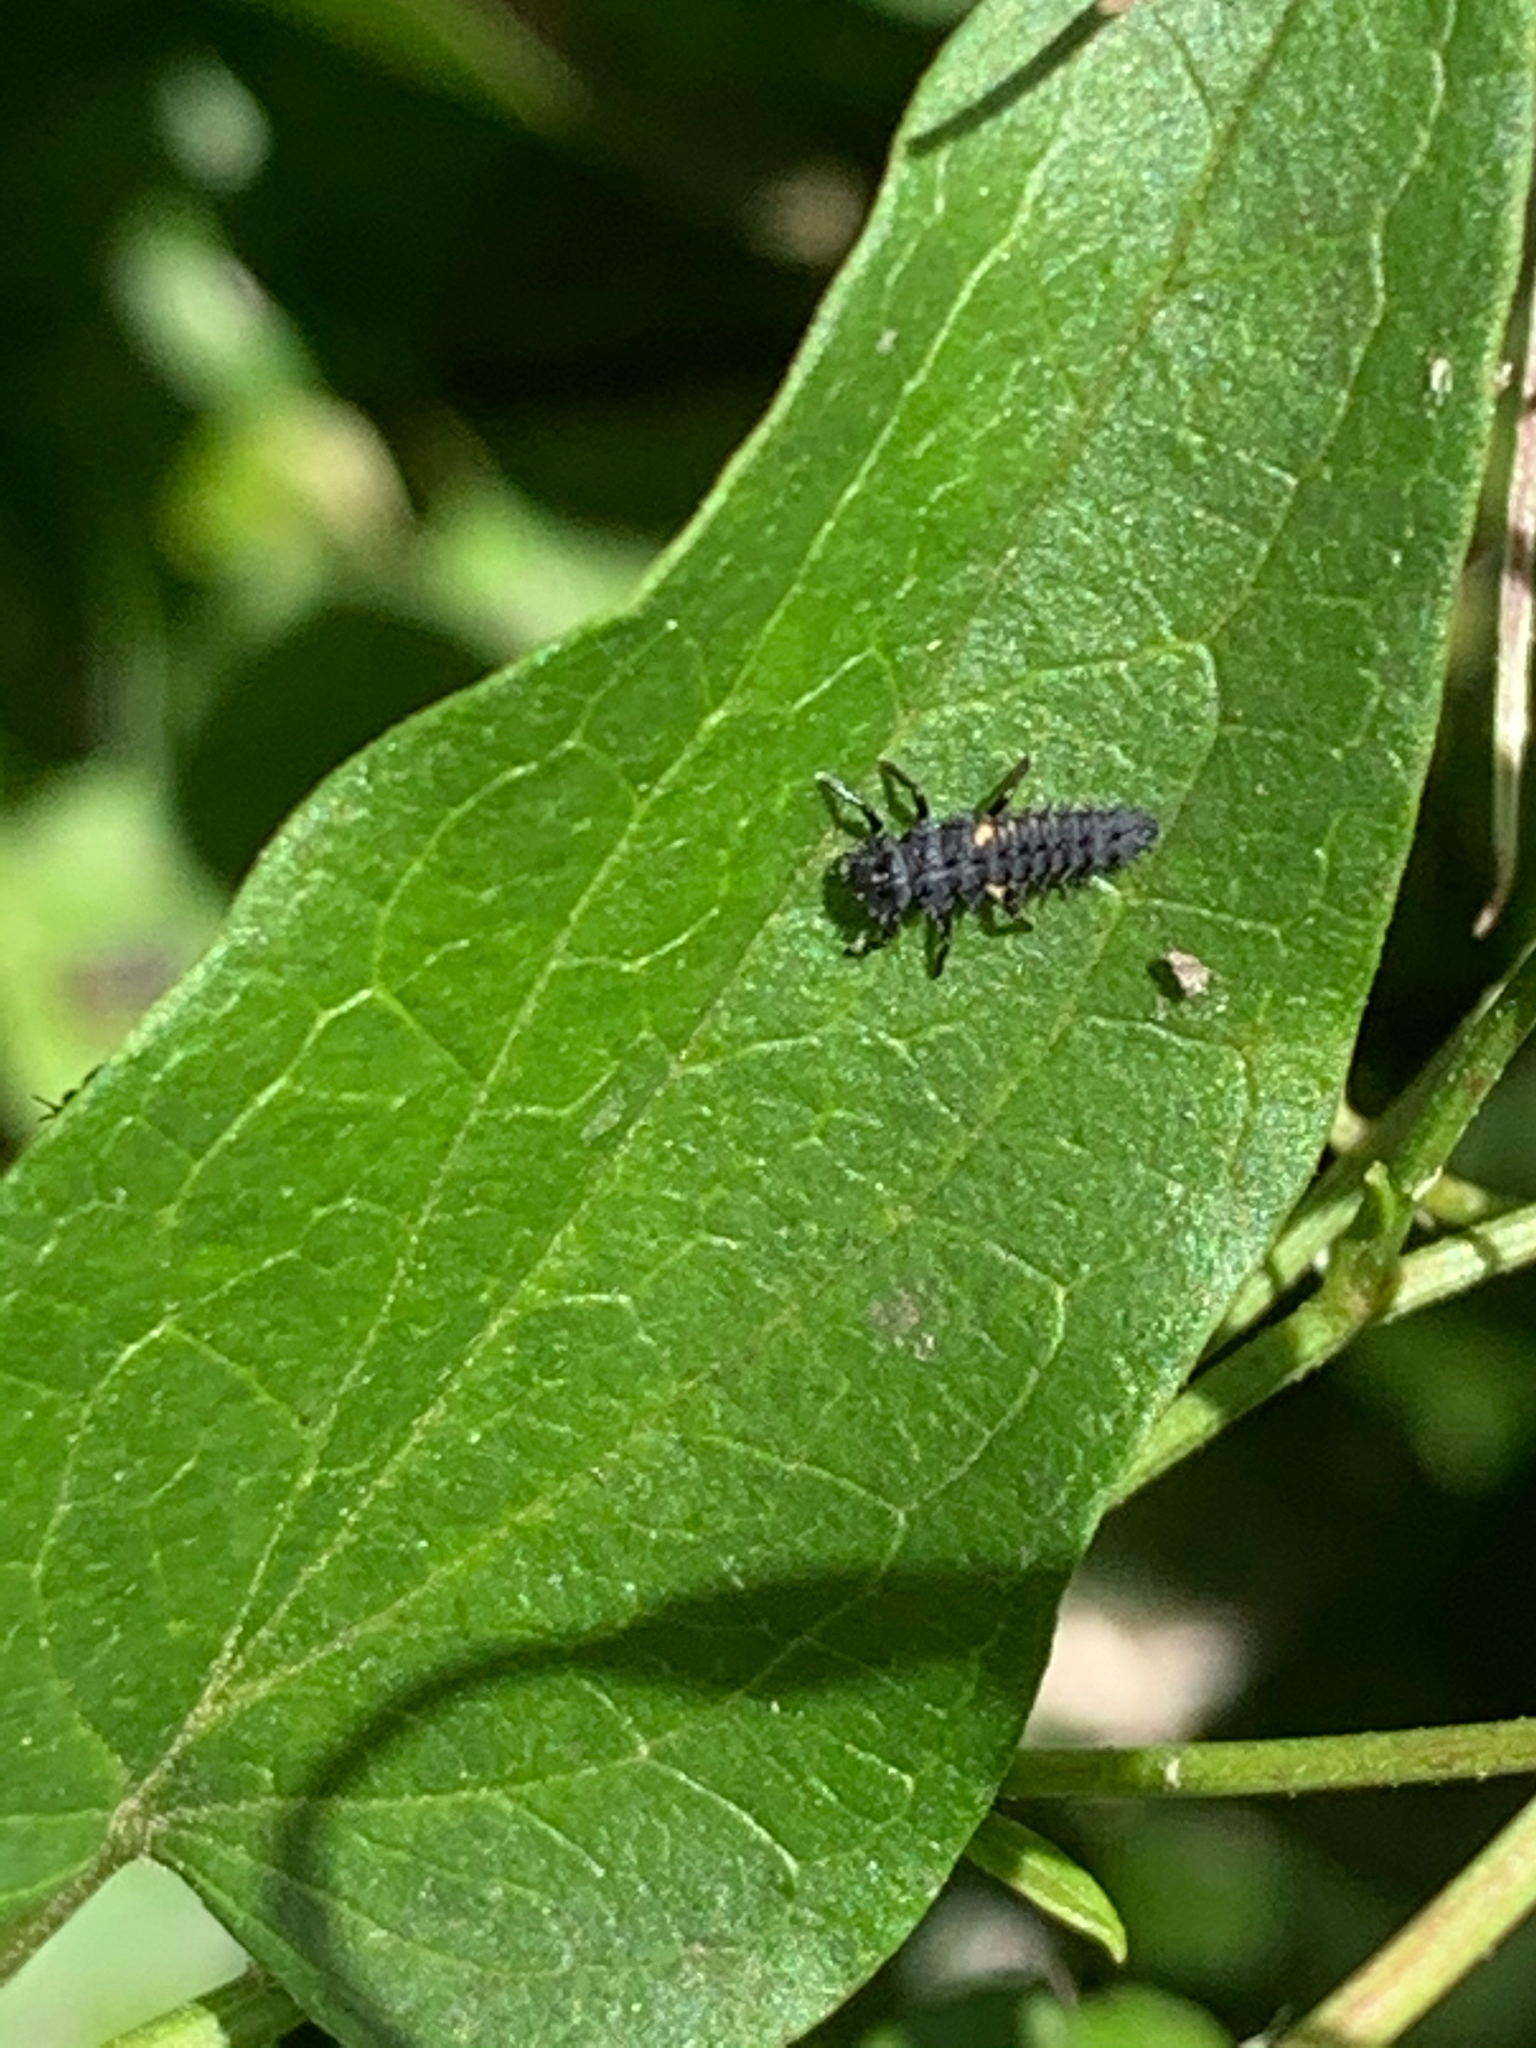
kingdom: Animalia
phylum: Arthropoda
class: Insecta
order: Coleoptera
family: Coccinellidae
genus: Harmonia
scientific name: Harmonia axyridis
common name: Harlequin ladybird
